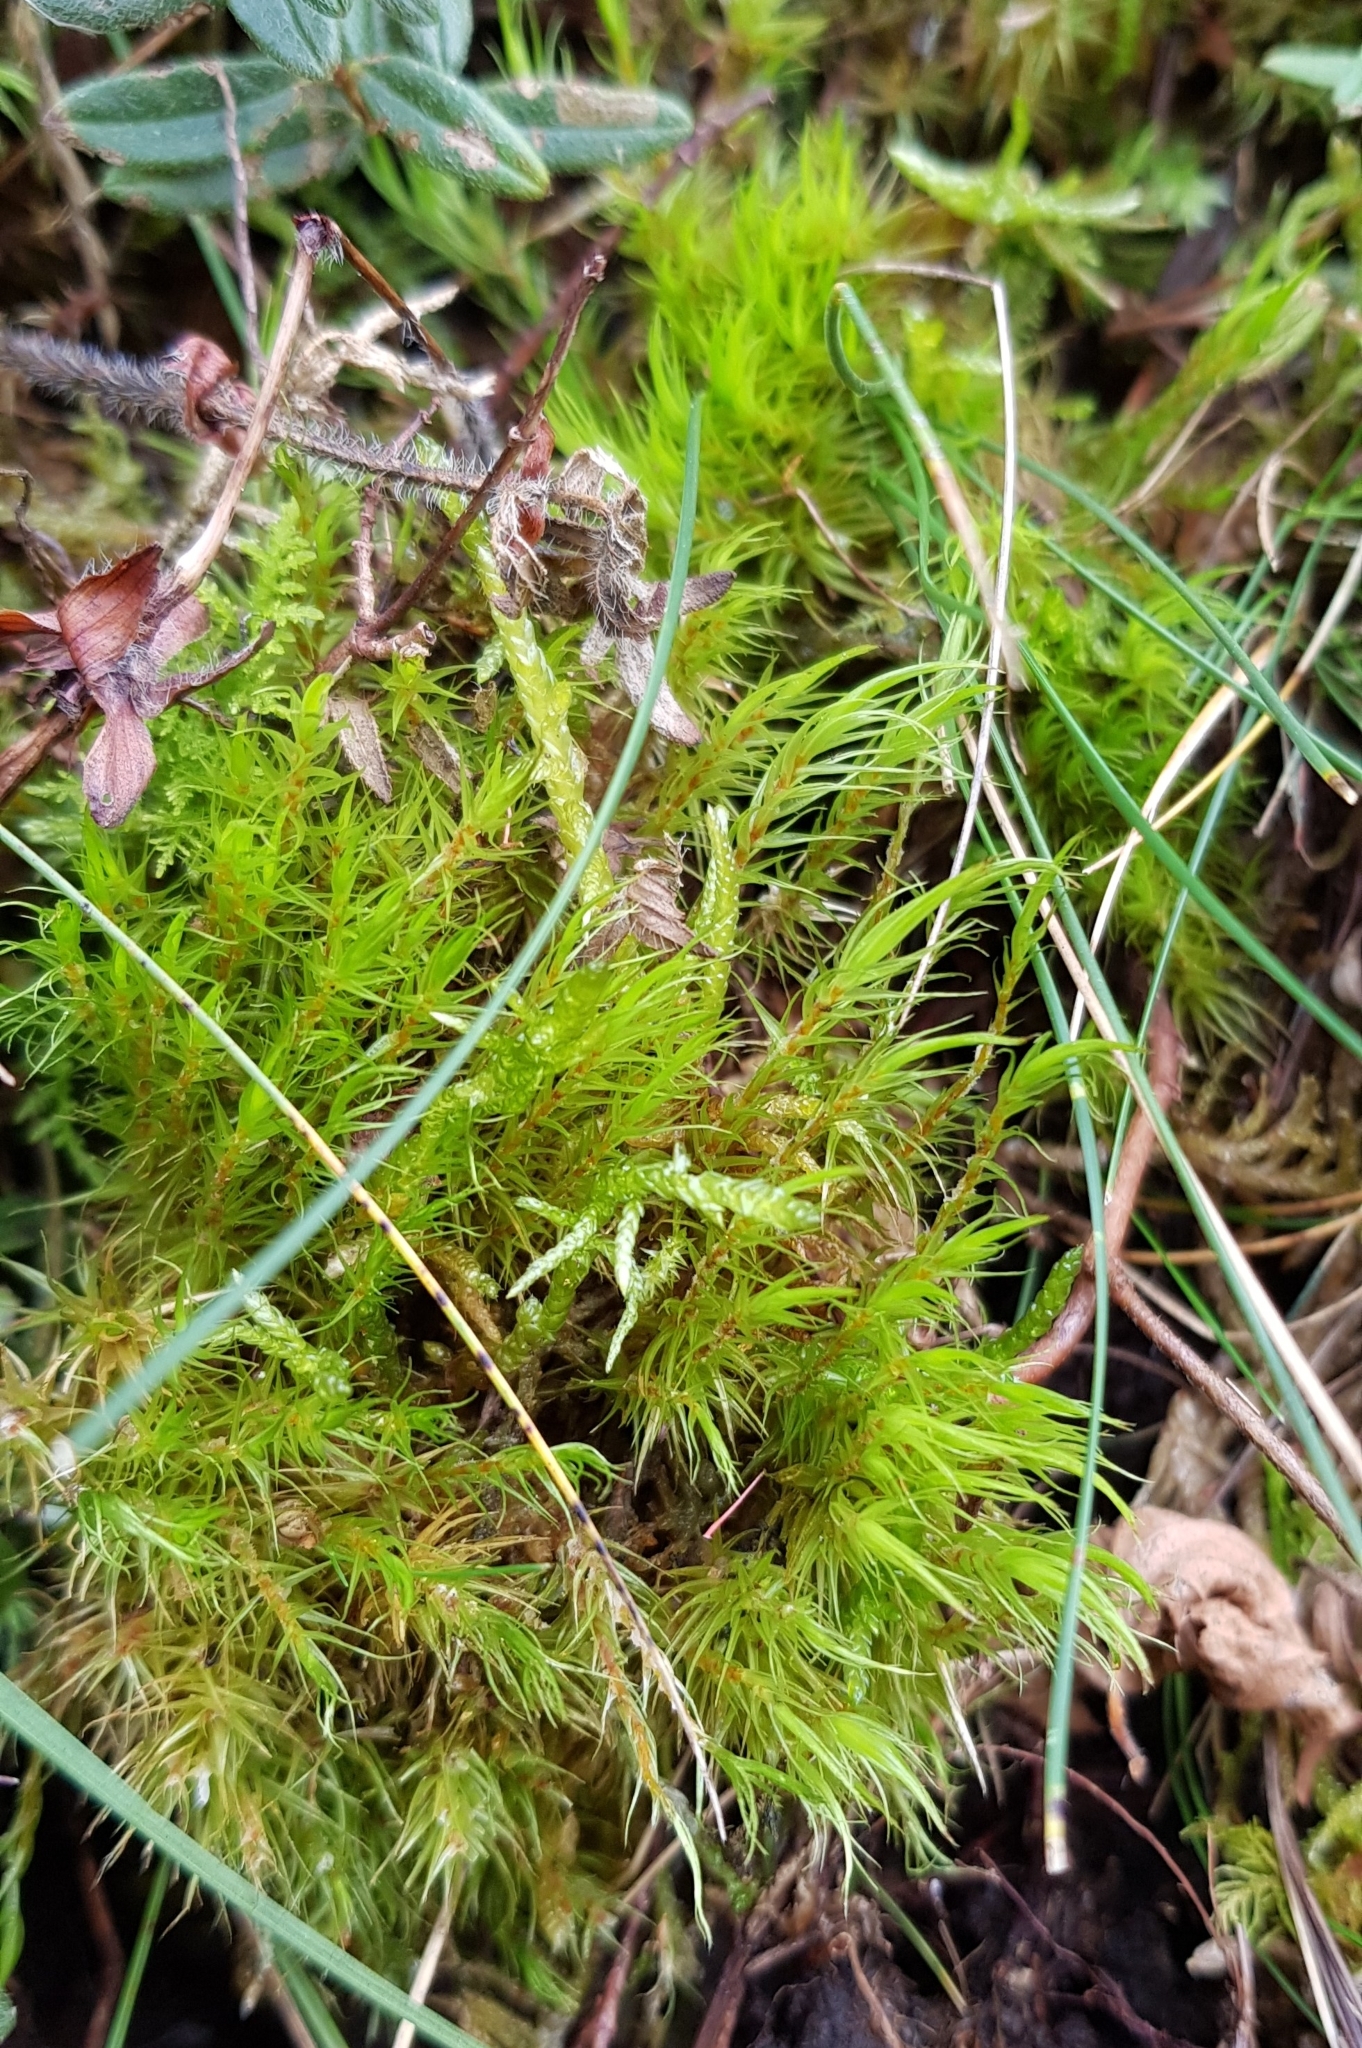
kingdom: Plantae
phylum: Bryophyta
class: Bryopsida
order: Dicranales
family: Dicranaceae
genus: Dicranum
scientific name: Dicranum scoparium
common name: Broom fork-moss
